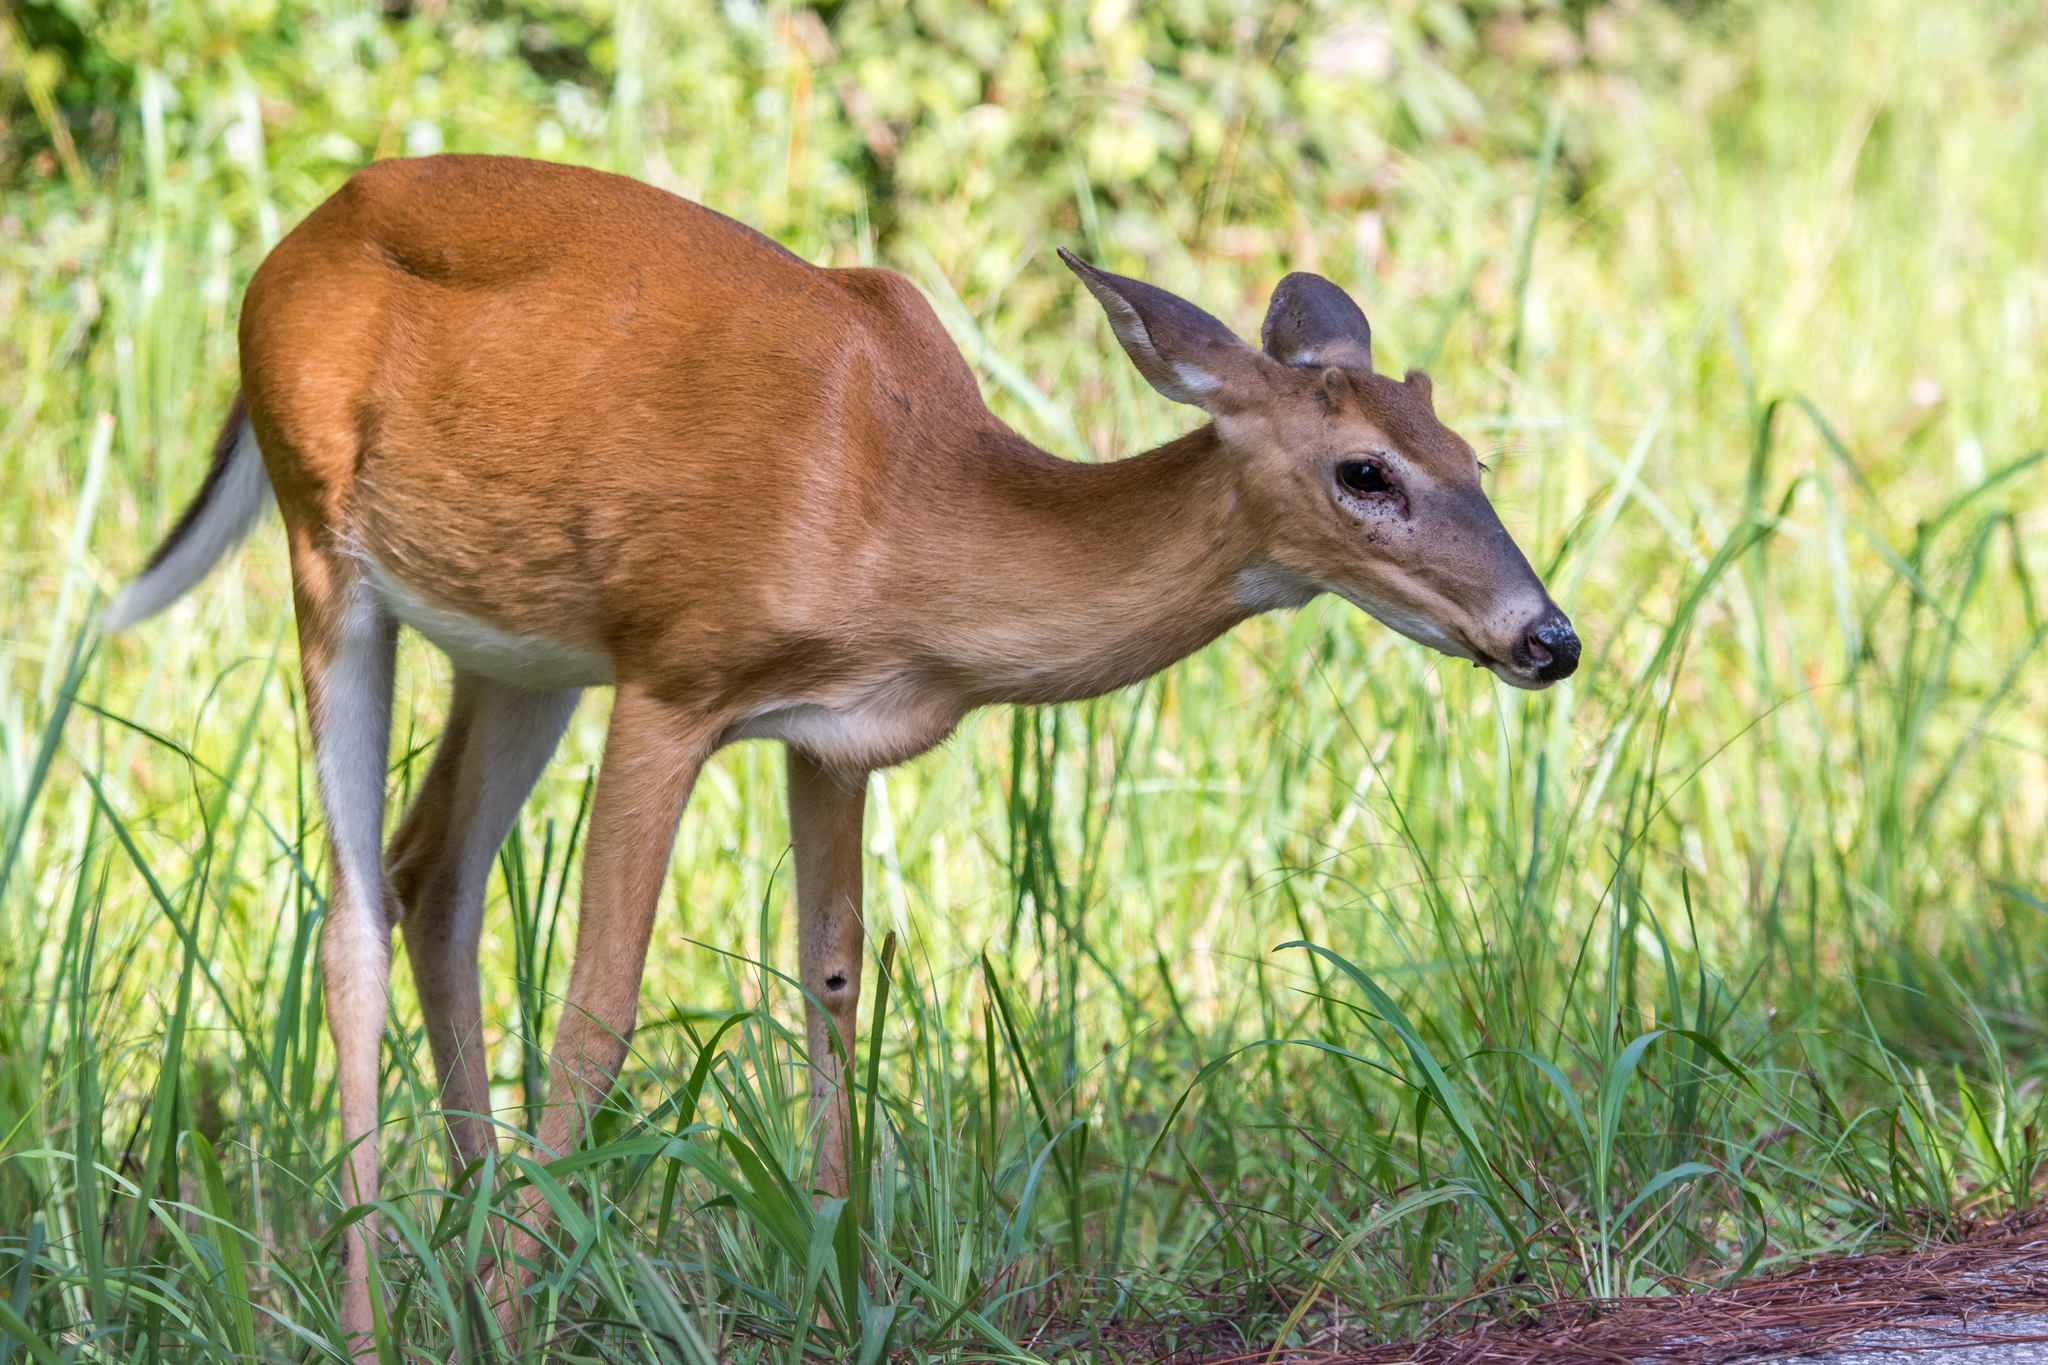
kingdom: Animalia
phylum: Chordata
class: Mammalia
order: Artiodactyla
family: Cervidae
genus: Odocoileus
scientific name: Odocoileus virginianus
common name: White-tailed deer
